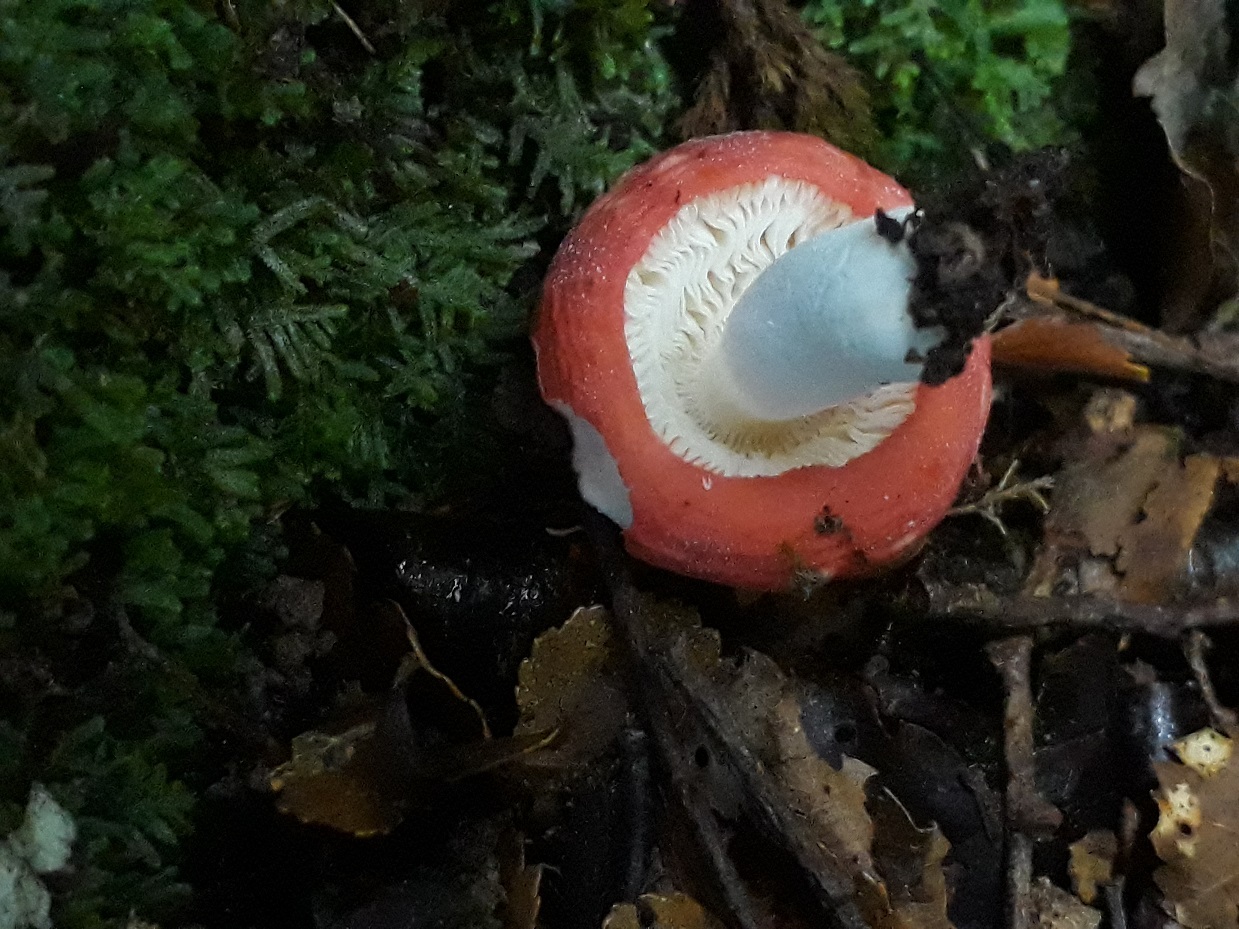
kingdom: Fungi
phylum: Basidiomycota
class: Agaricomycetes
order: Russulales
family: Russulaceae
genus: Russula
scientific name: Russula kermesina
